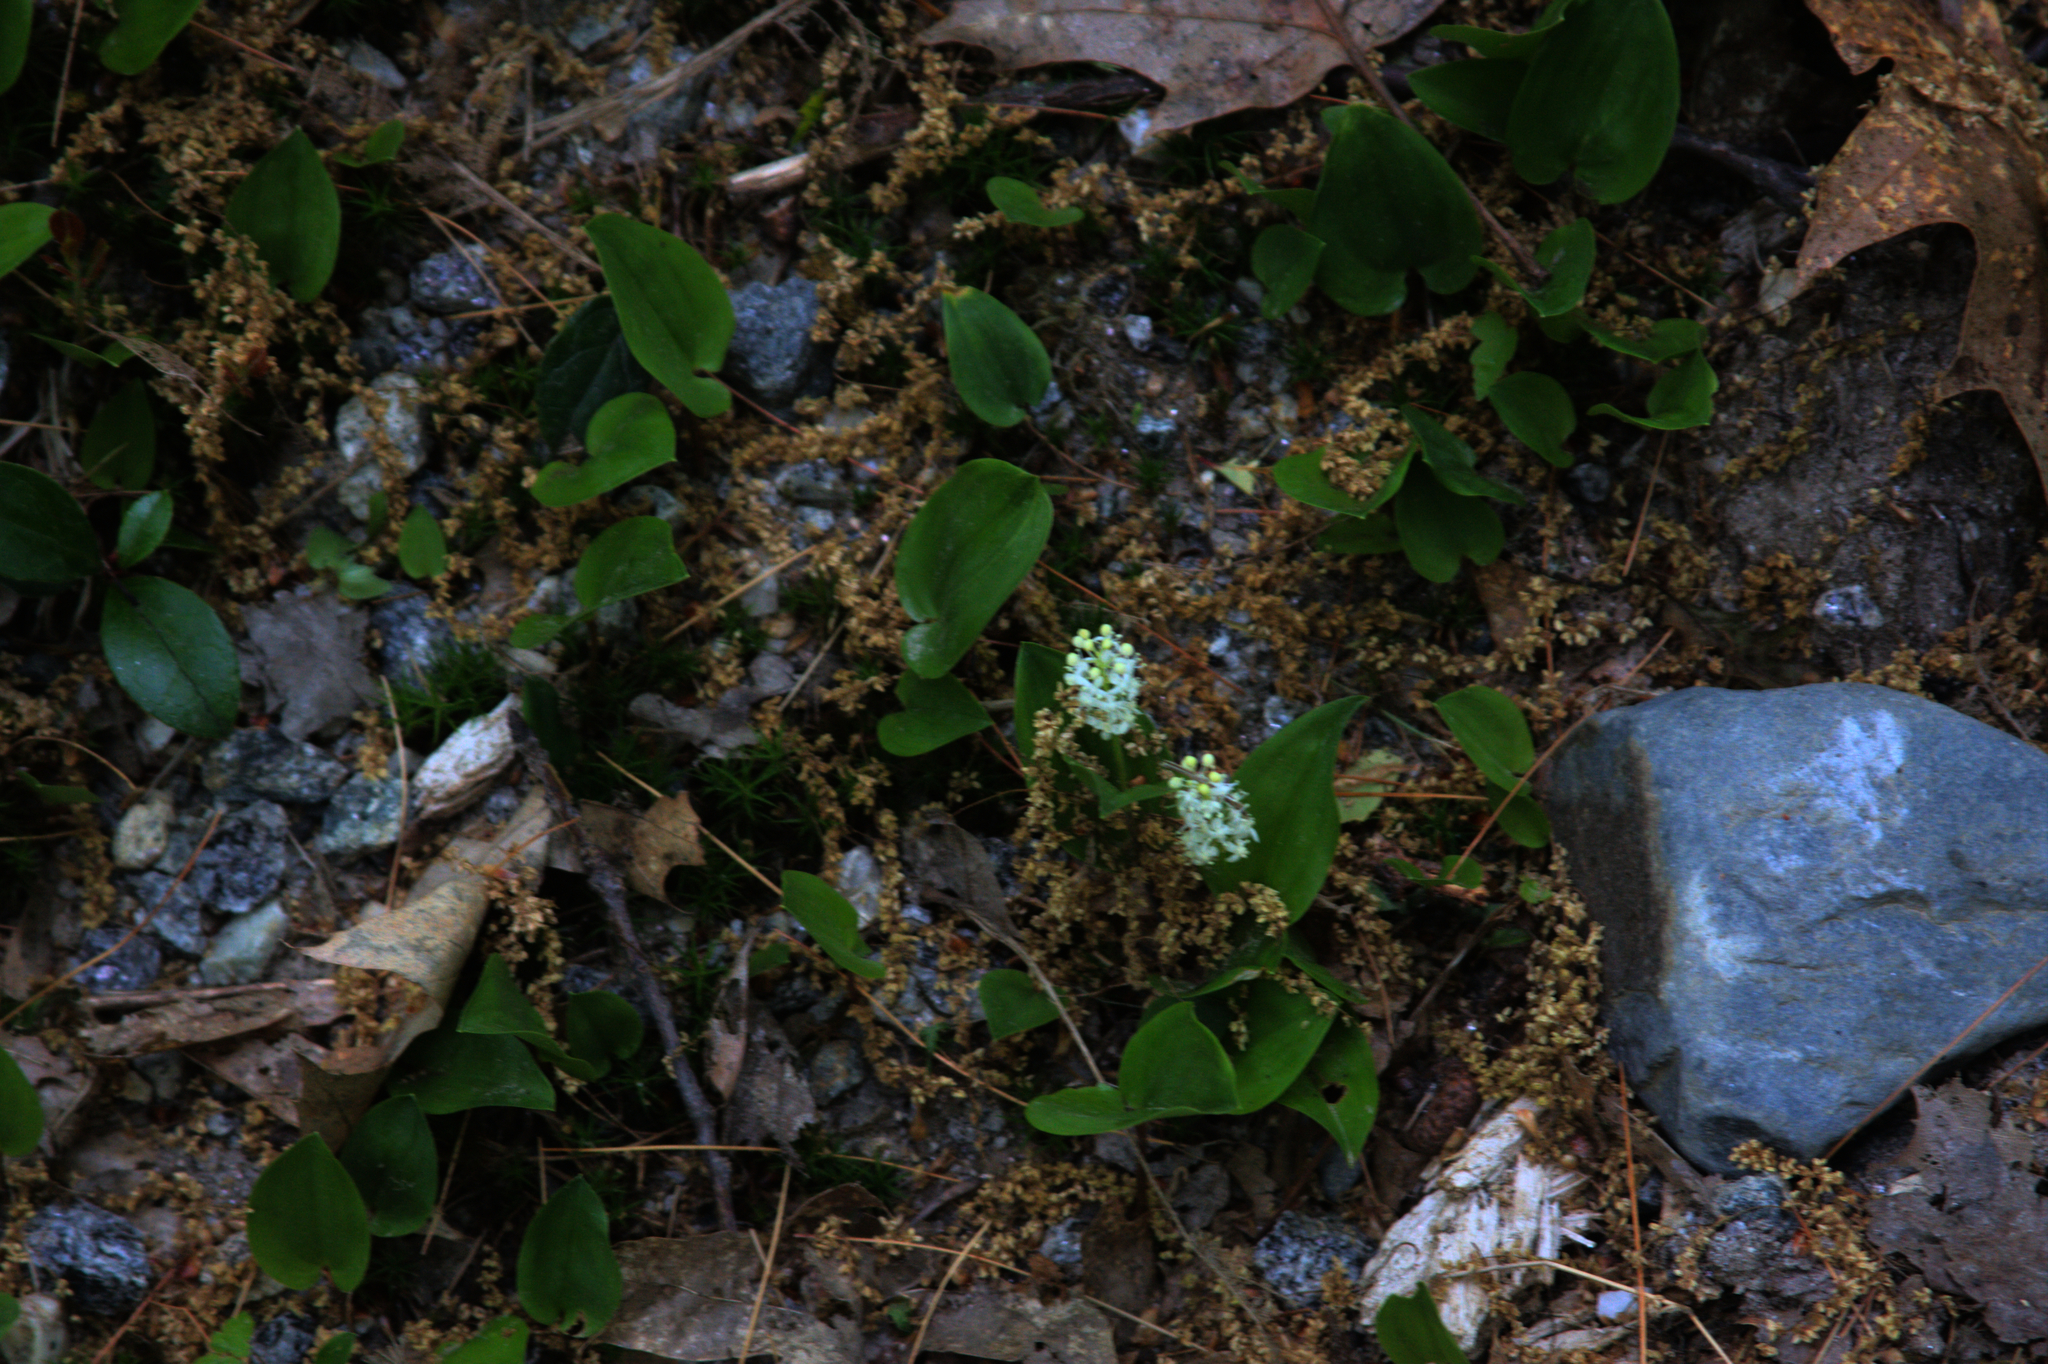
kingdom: Plantae
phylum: Tracheophyta
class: Liliopsida
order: Asparagales
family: Asparagaceae
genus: Maianthemum
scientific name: Maianthemum canadense
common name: False lily-of-the-valley
